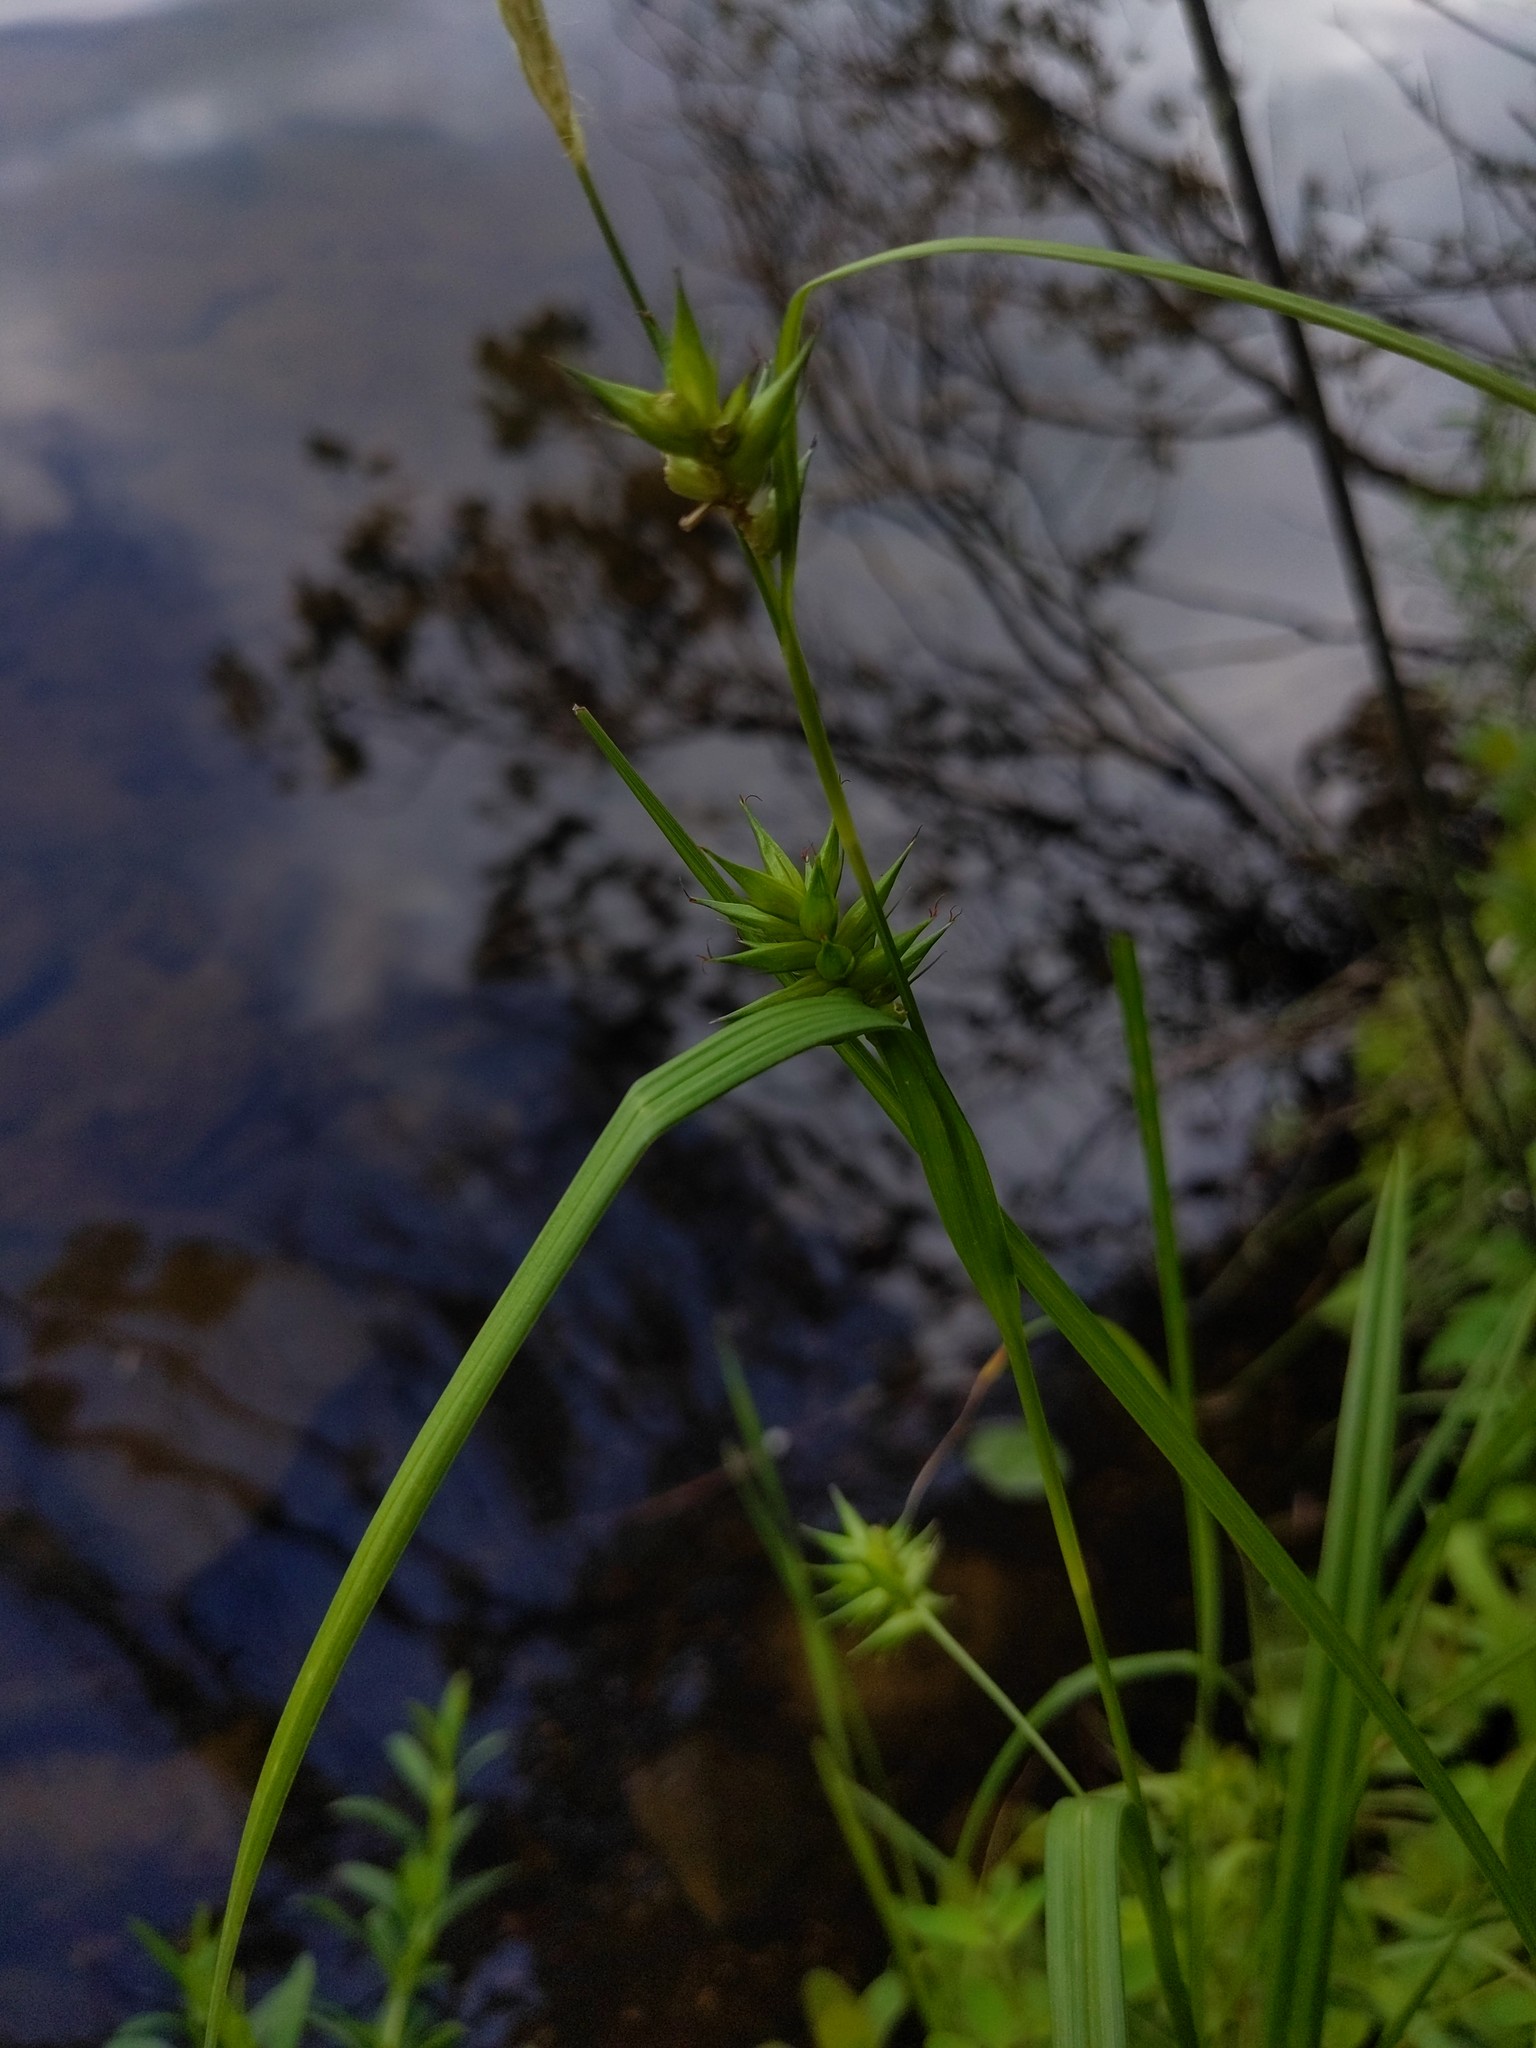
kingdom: Plantae
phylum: Tracheophyta
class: Liliopsida
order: Poales
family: Cyperaceae
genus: Carex
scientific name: Carex folliculata
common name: Northern long sedge
